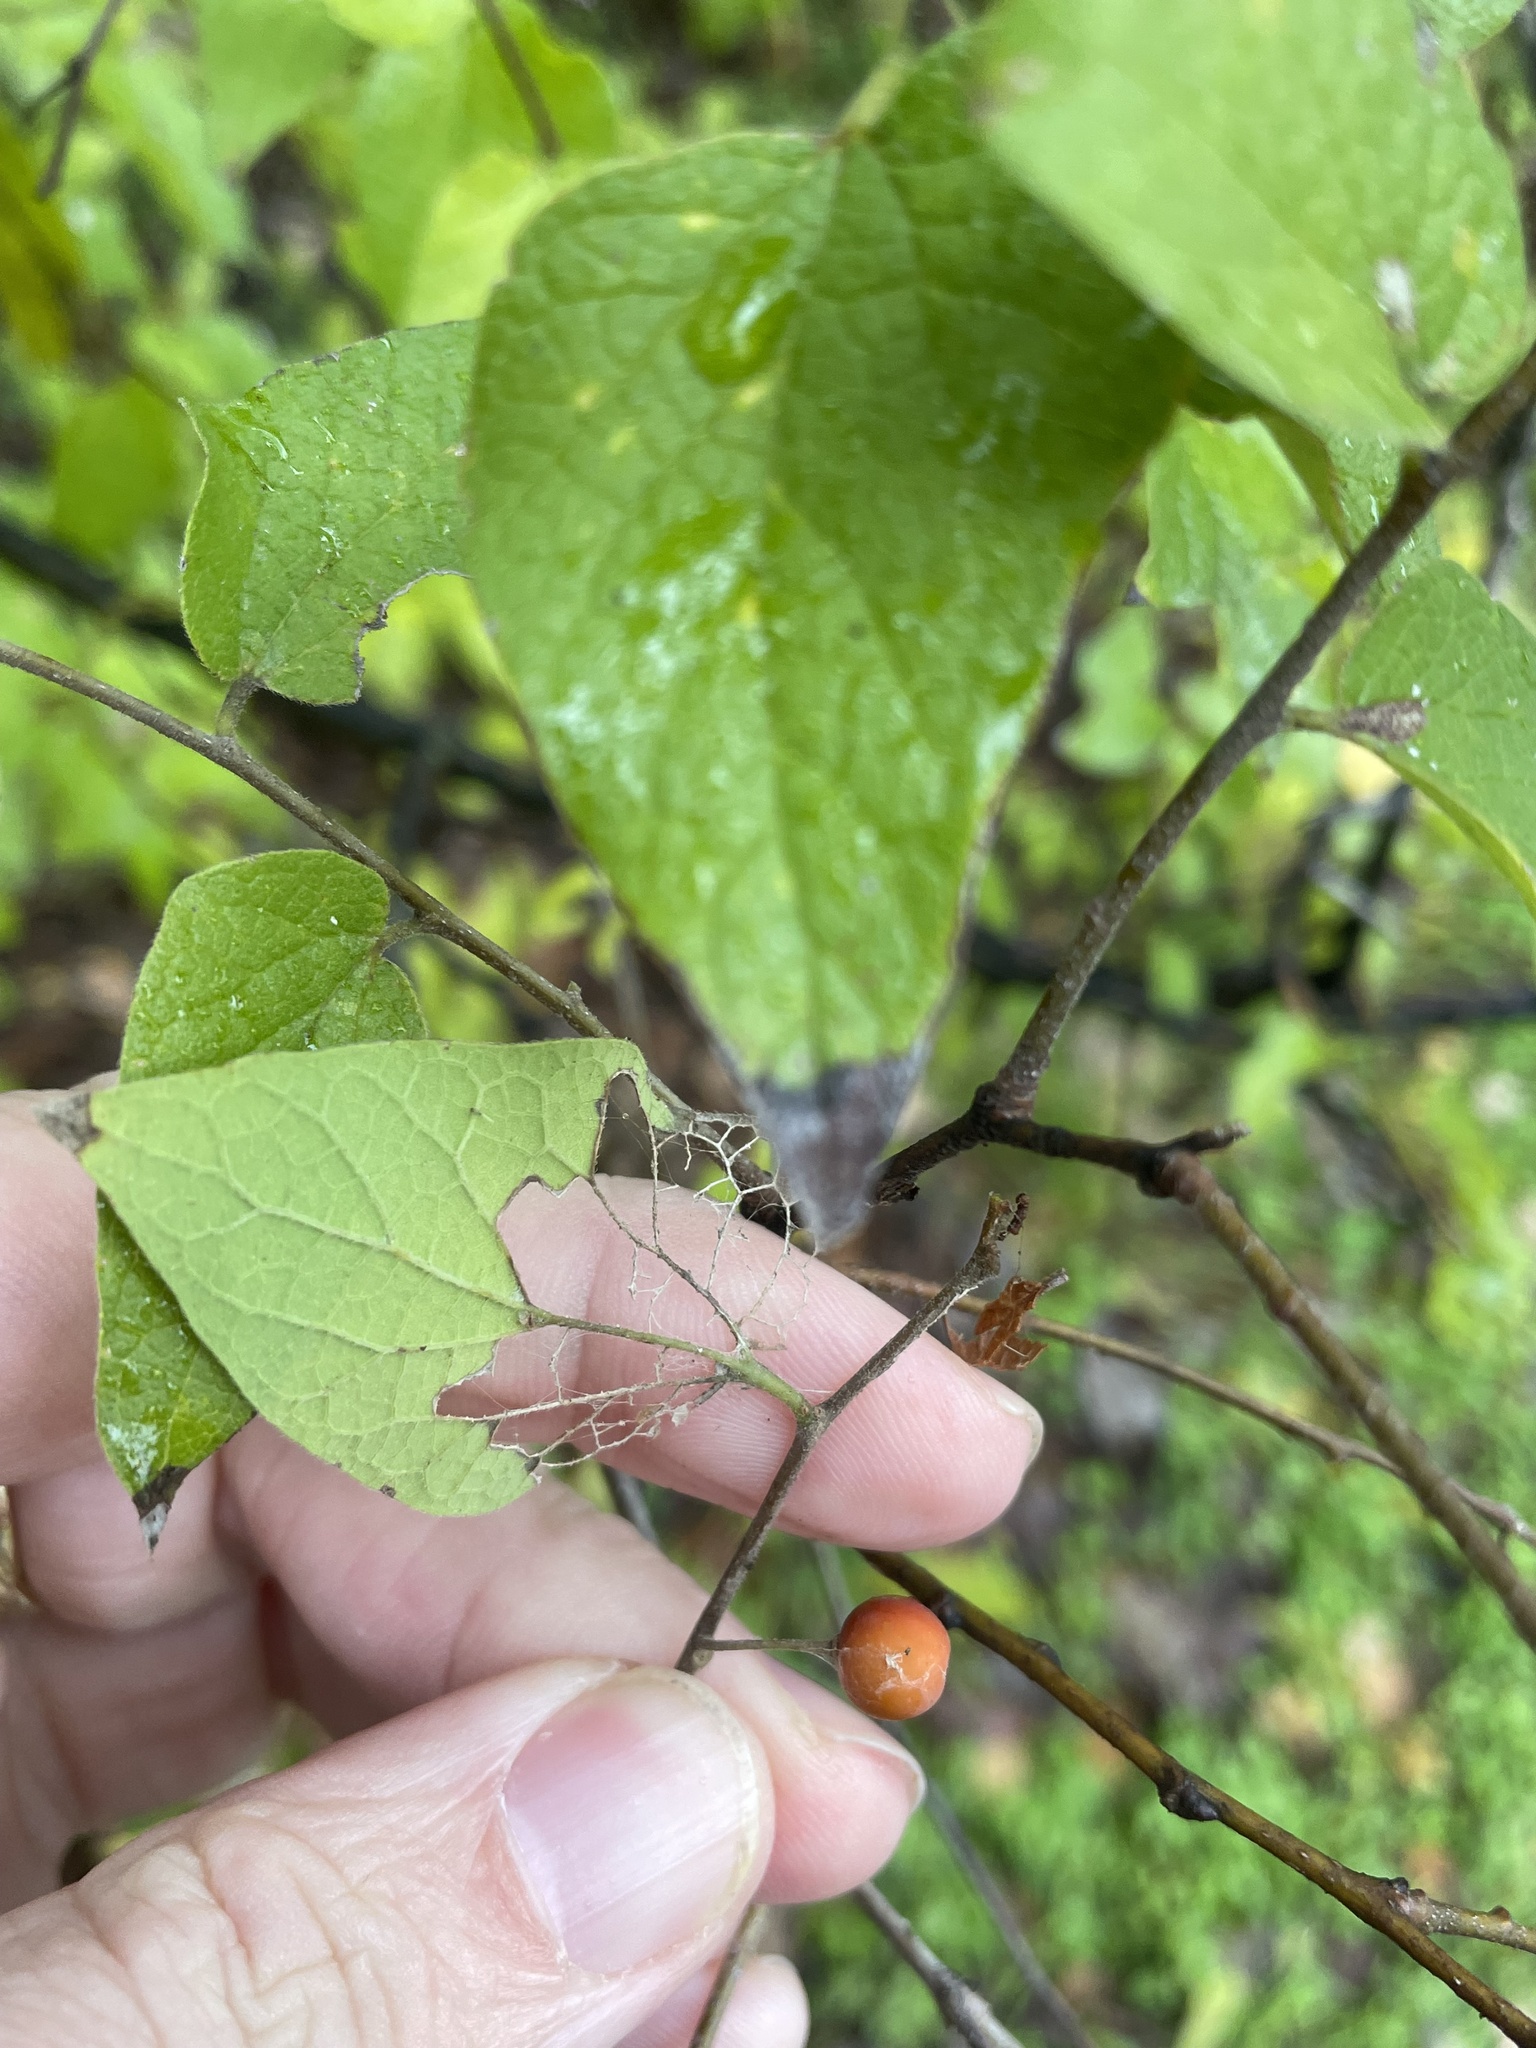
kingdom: Plantae
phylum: Tracheophyta
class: Magnoliopsida
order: Rosales
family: Cannabaceae
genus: Celtis
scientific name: Celtis reticulata
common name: Netleaf hackberry
